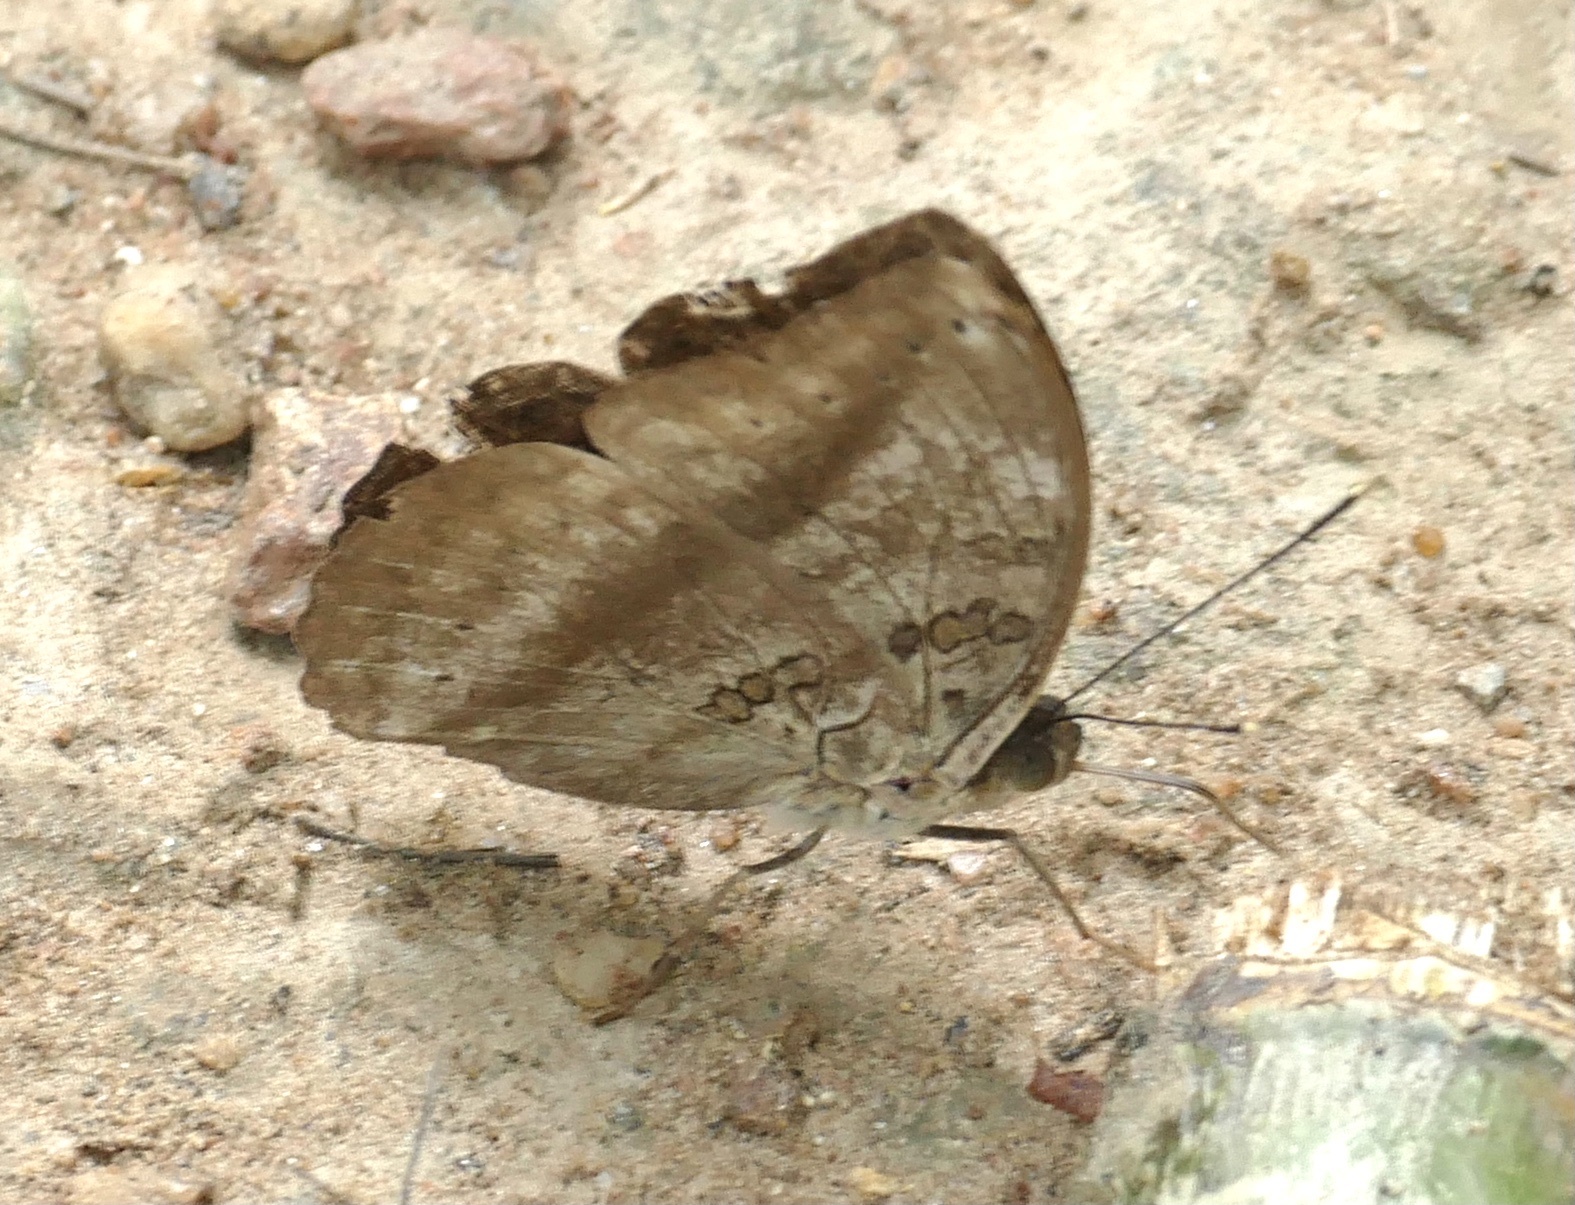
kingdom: Animalia
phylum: Arthropoda
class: Insecta
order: Lepidoptera
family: Nymphalidae
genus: Bebearia
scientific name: Bebearia mardania
